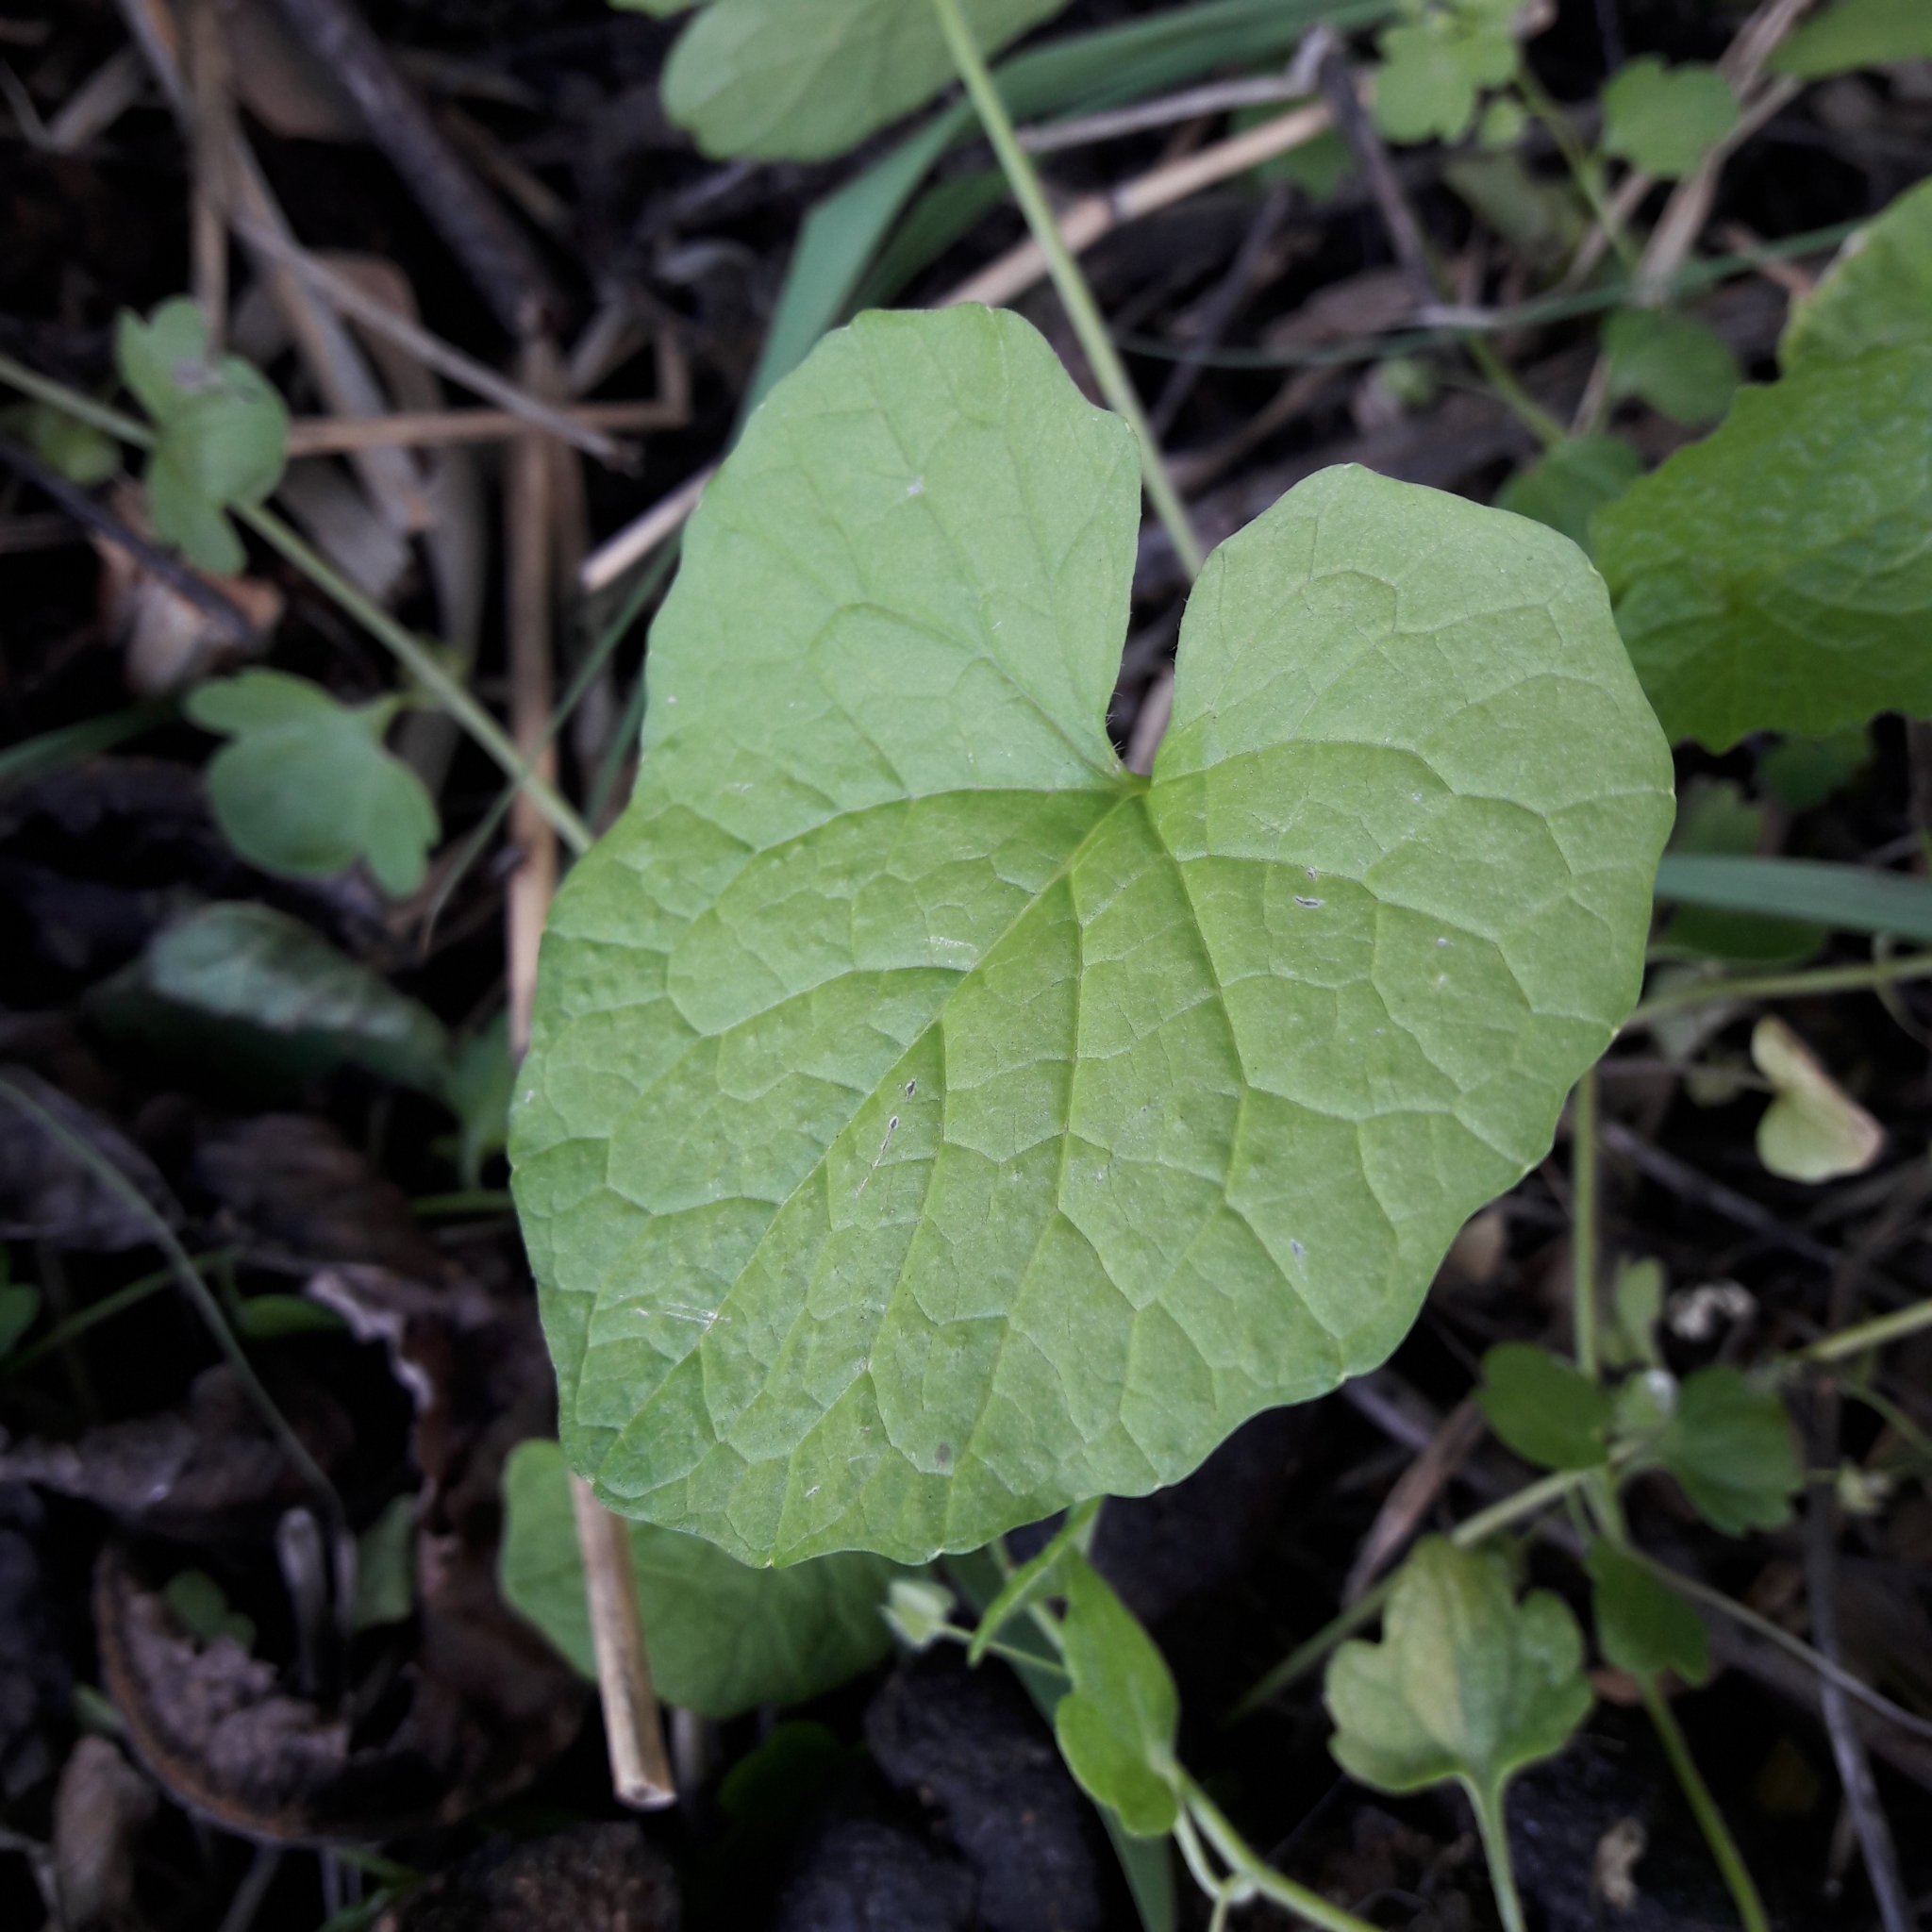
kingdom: Plantae
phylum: Tracheophyta
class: Magnoliopsida
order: Brassicales
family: Brassicaceae
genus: Alliaria
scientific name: Alliaria petiolata
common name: Garlic mustard
